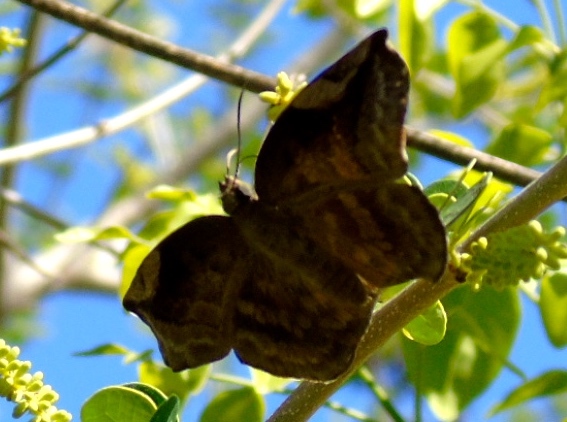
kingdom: Animalia
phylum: Arthropoda
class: Insecta
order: Lepidoptera
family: Hesperiidae
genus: Achlyodes
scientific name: Achlyodes thraso
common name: Sickle-winged skipper
